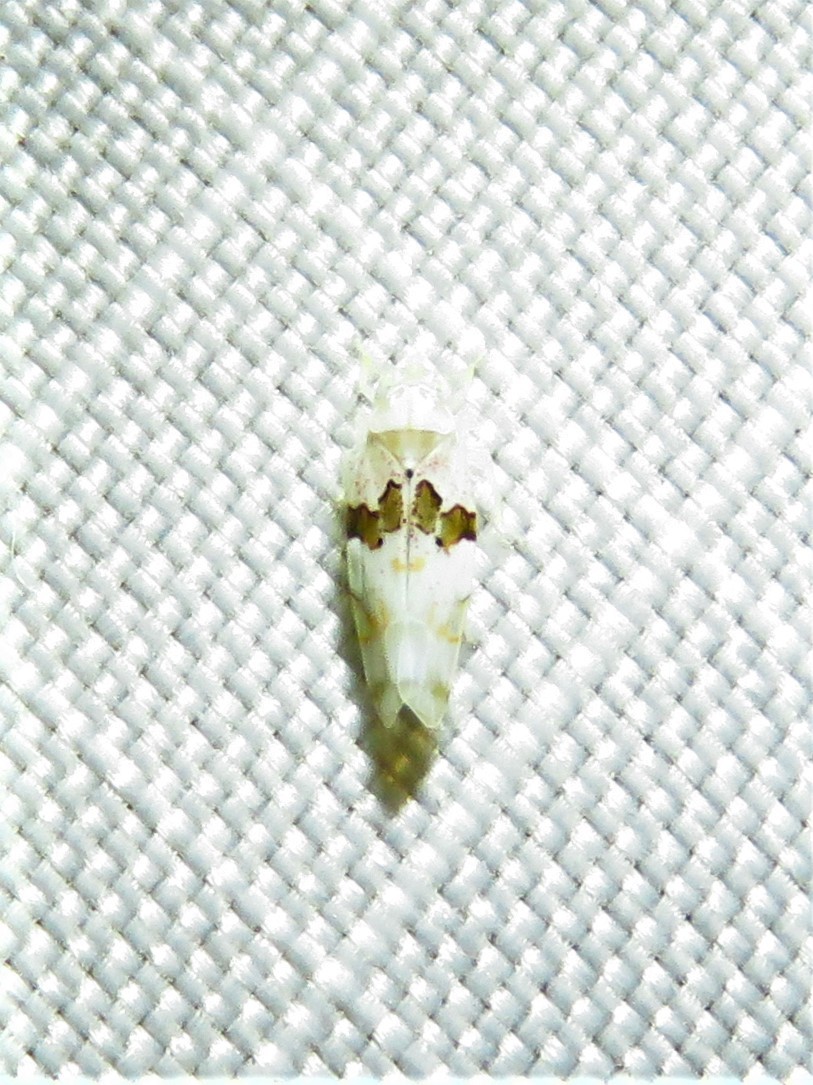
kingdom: Animalia
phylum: Arthropoda
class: Insecta
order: Hemiptera
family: Cicadellidae
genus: Hymetta
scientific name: Hymetta balteata
